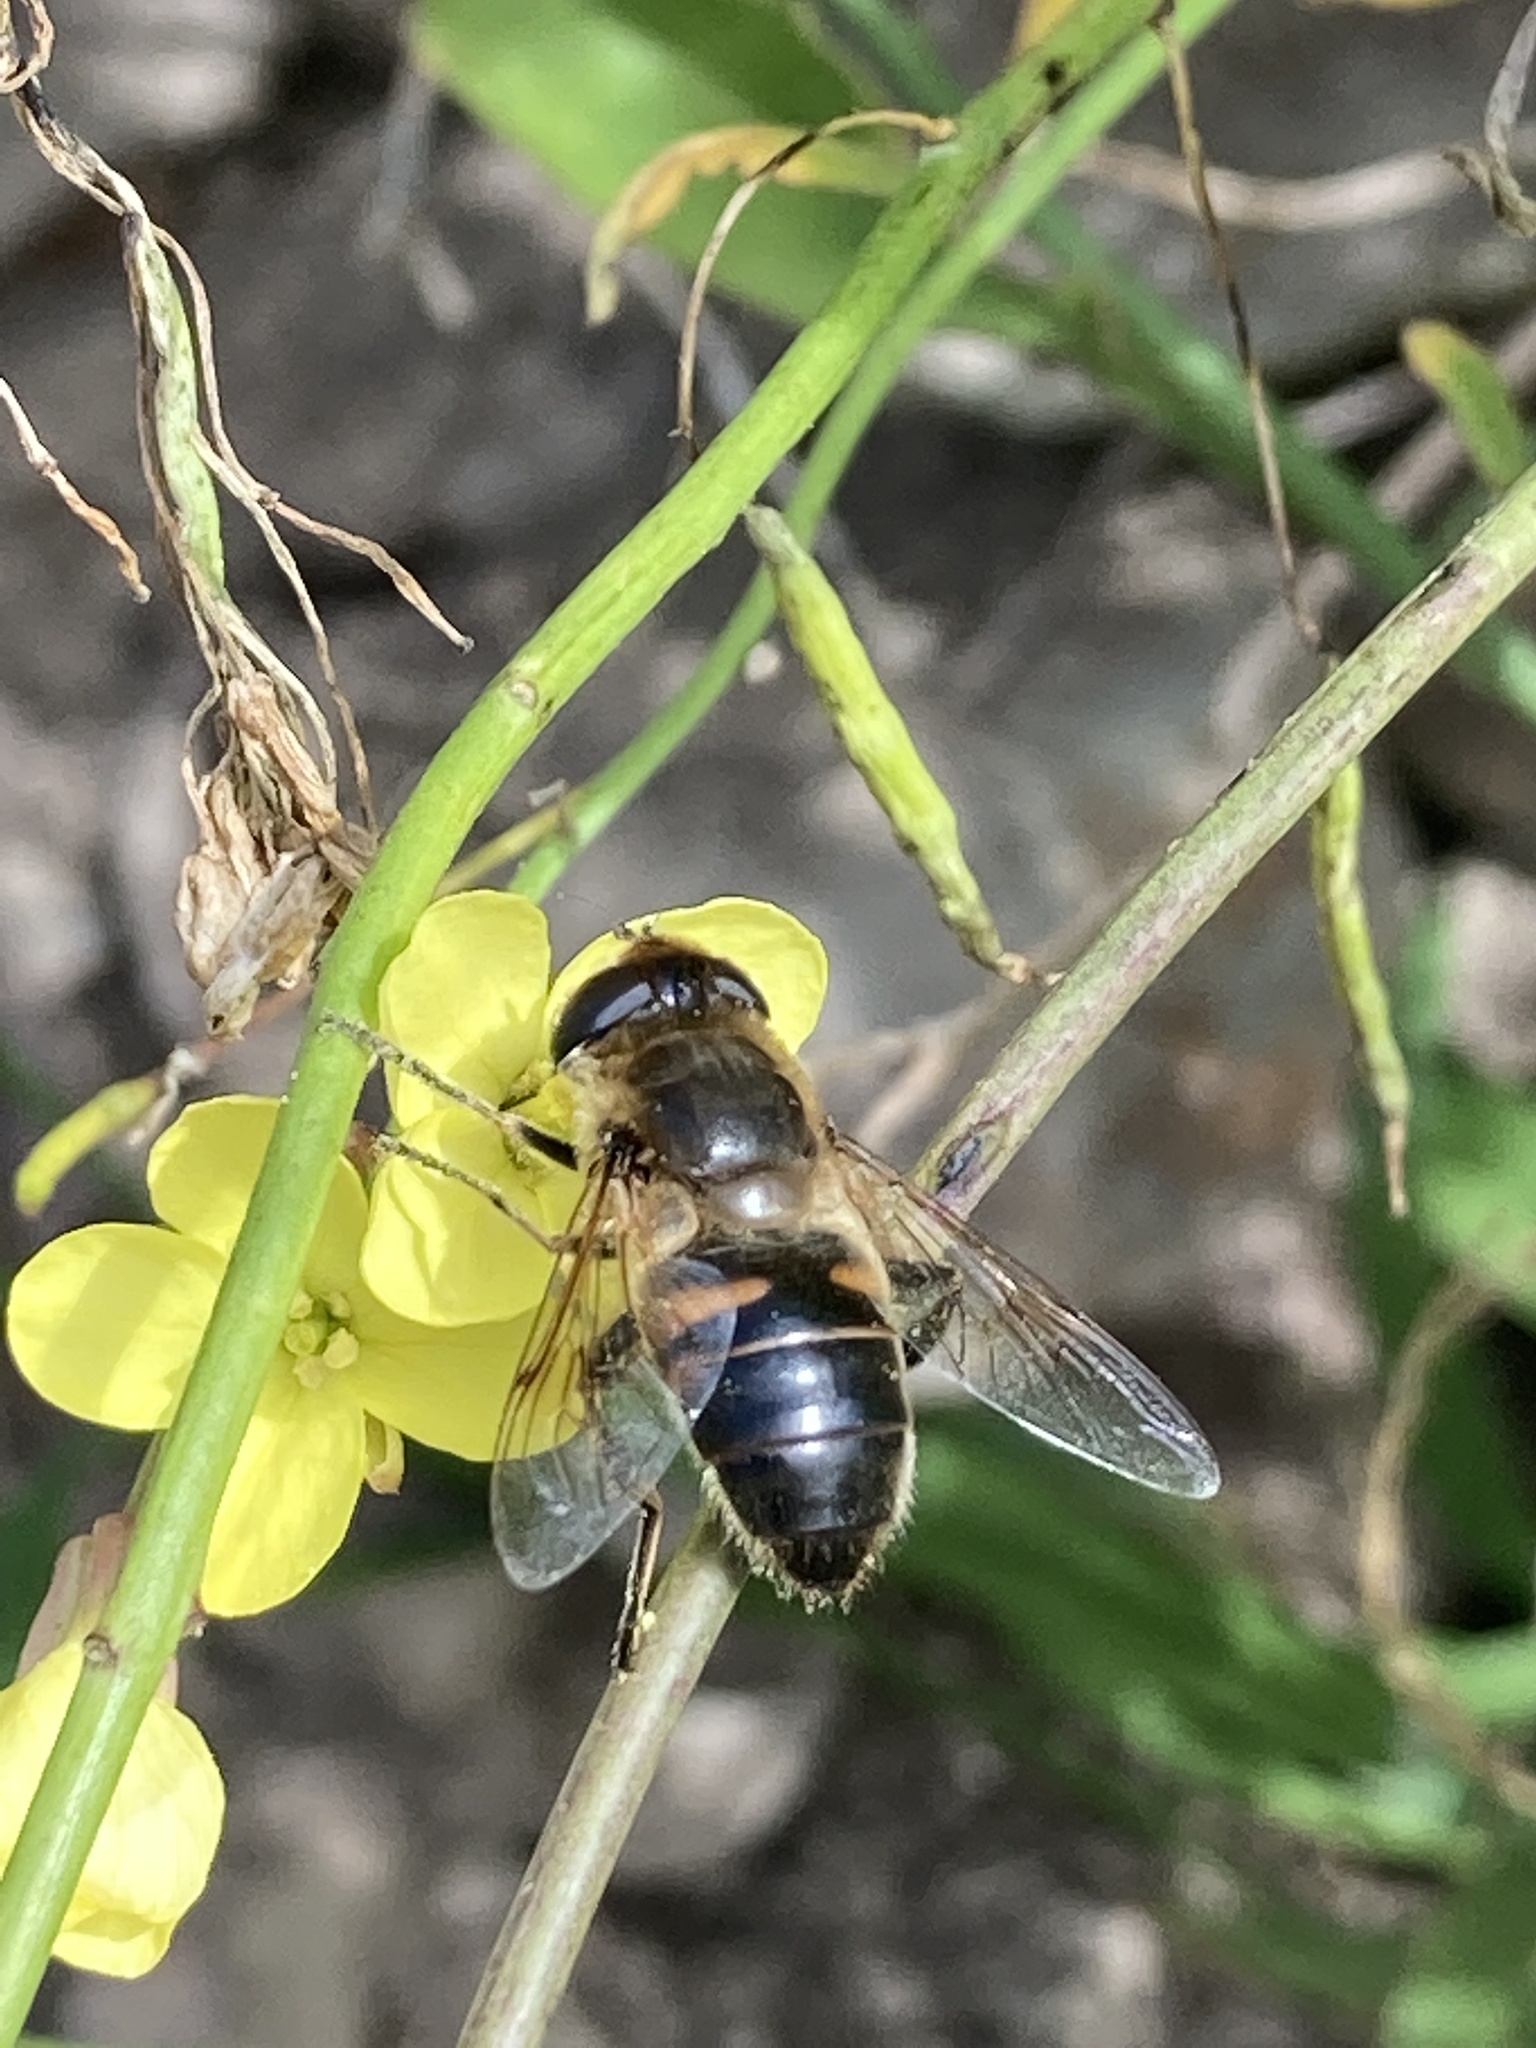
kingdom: Animalia
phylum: Arthropoda
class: Insecta
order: Diptera
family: Syrphidae
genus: Eristalis
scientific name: Eristalis tenax
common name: Drone fly
